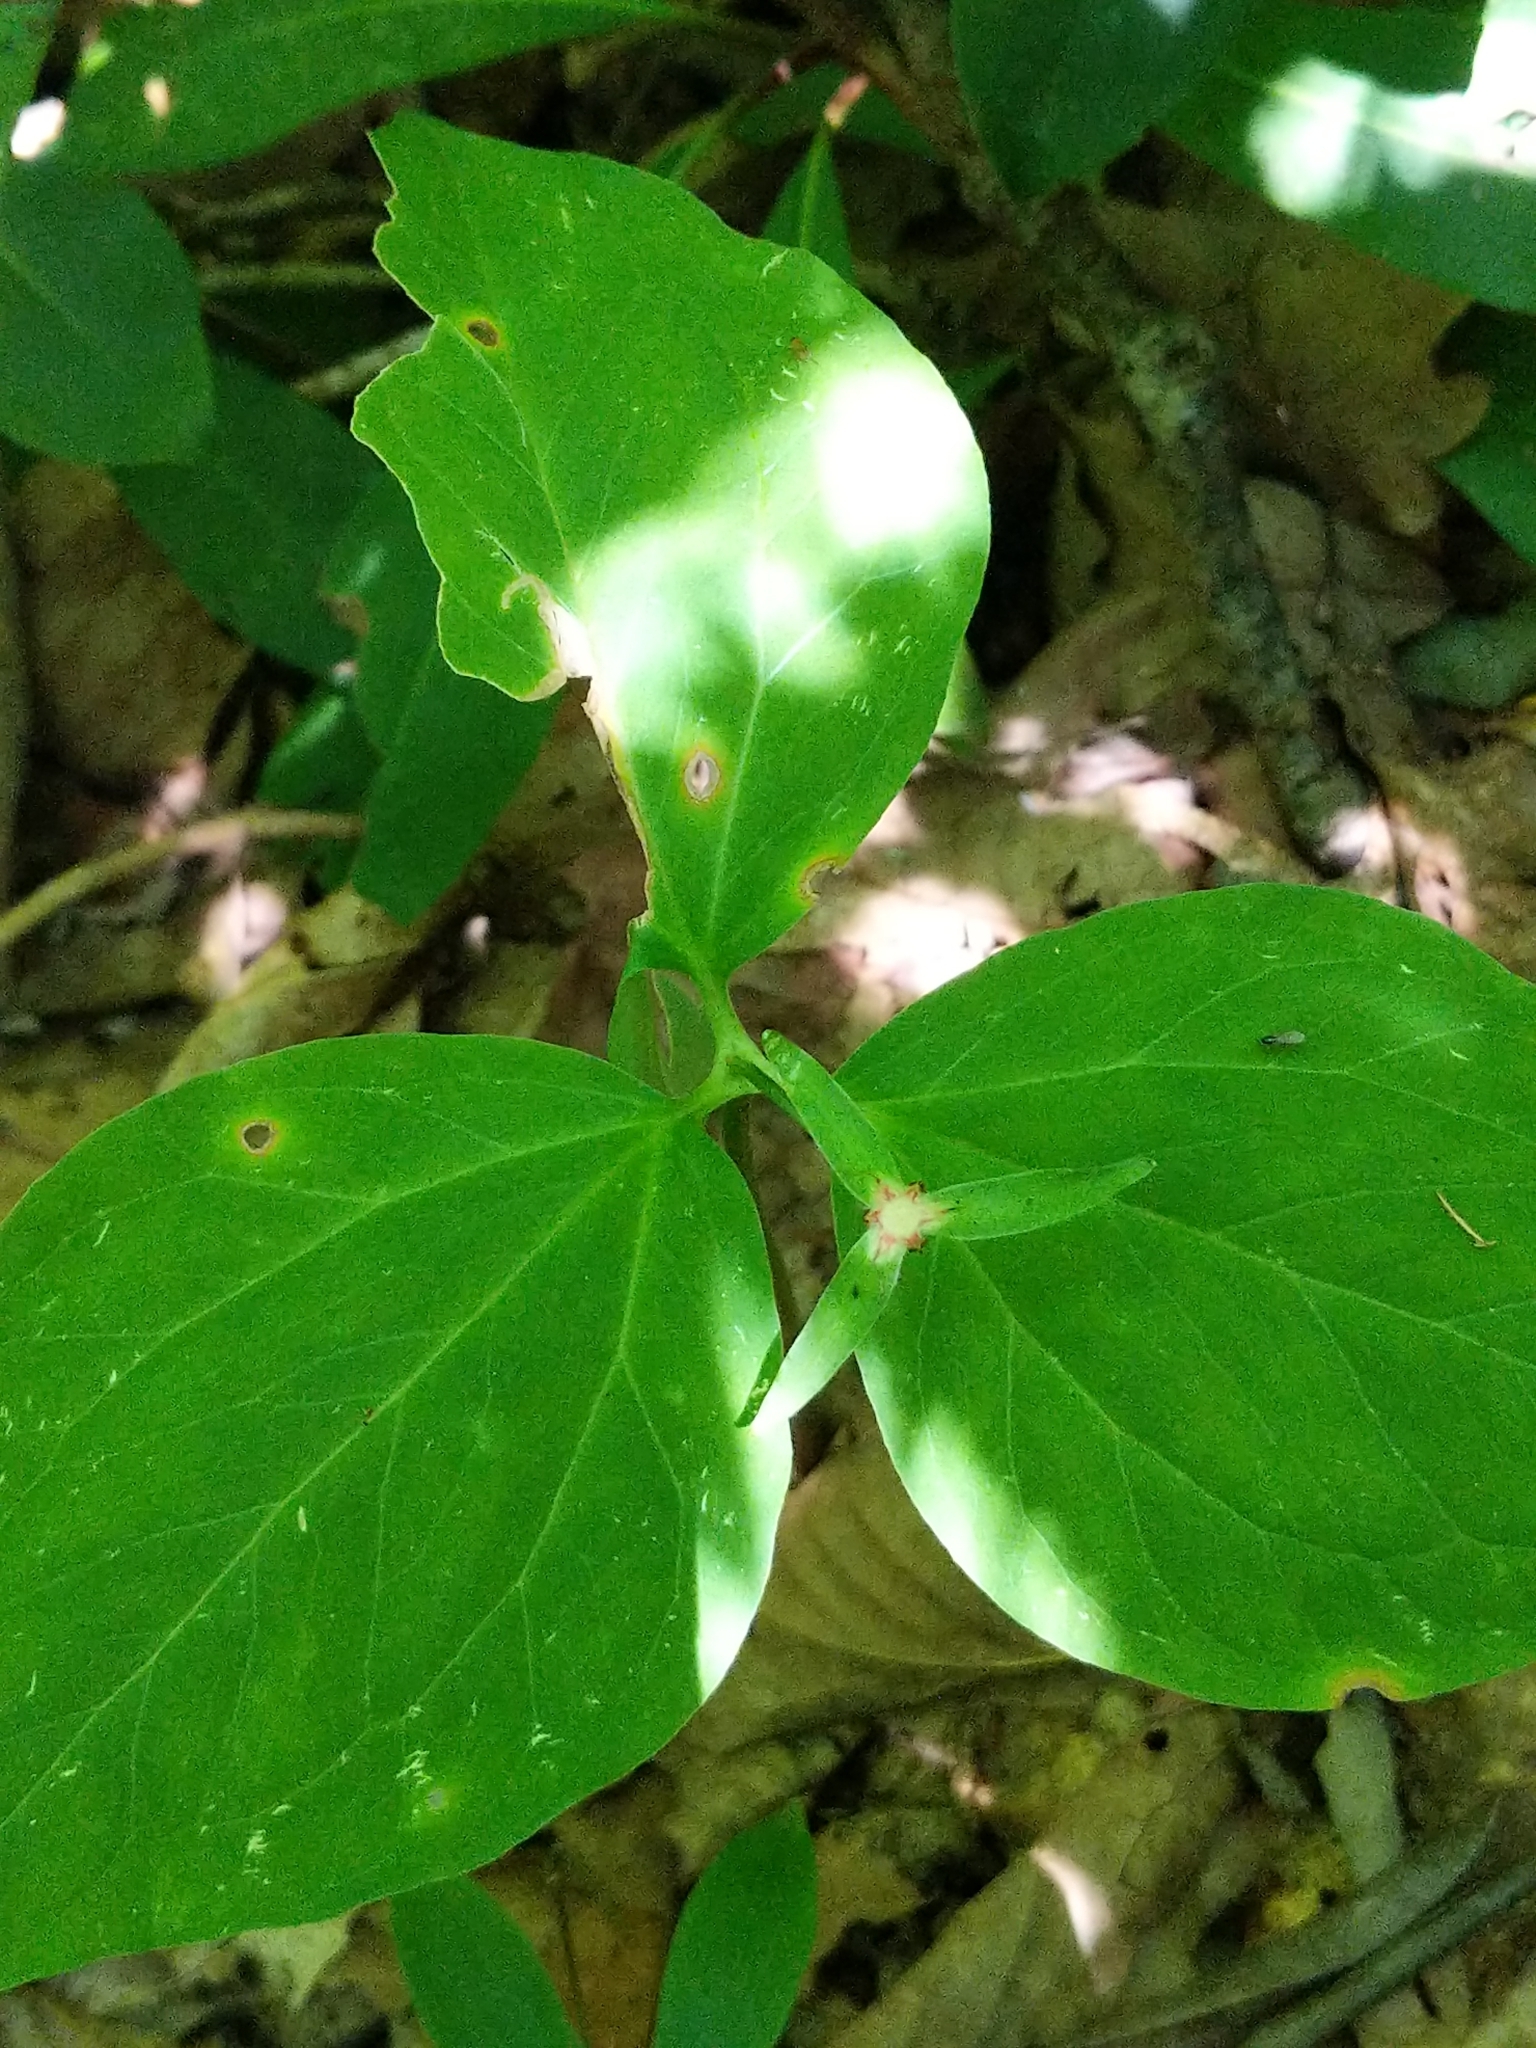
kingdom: Plantae
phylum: Tracheophyta
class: Liliopsida
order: Liliales
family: Melanthiaceae
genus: Trillium
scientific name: Trillium undulatum
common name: Paint trillium
